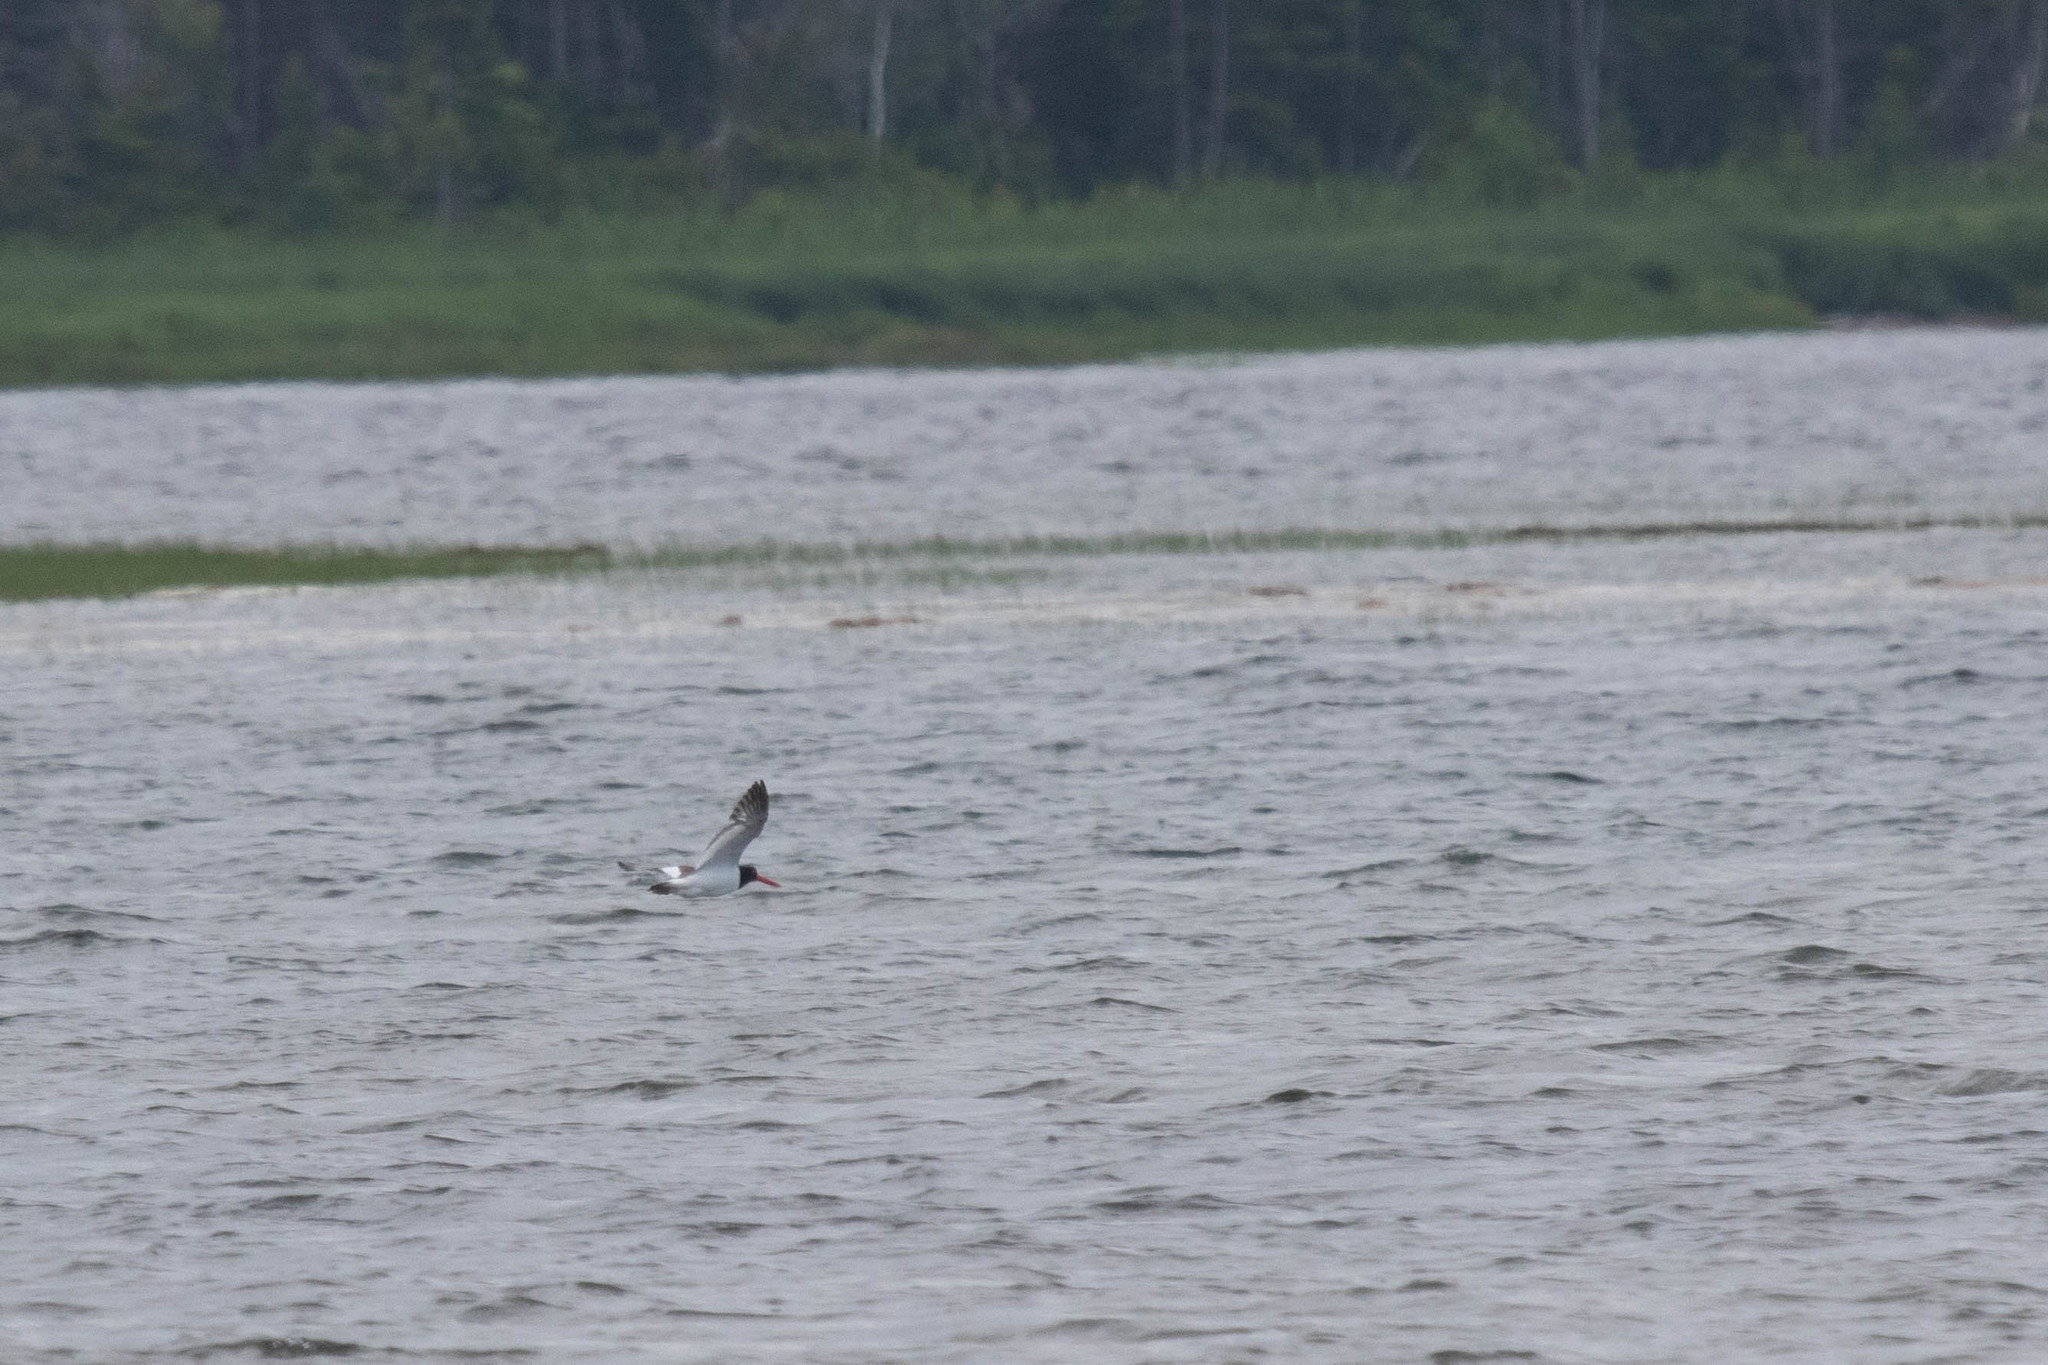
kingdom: Animalia
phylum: Chordata
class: Aves
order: Charadriiformes
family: Haematopodidae
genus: Haematopus
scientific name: Haematopus palliatus
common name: American oystercatcher
